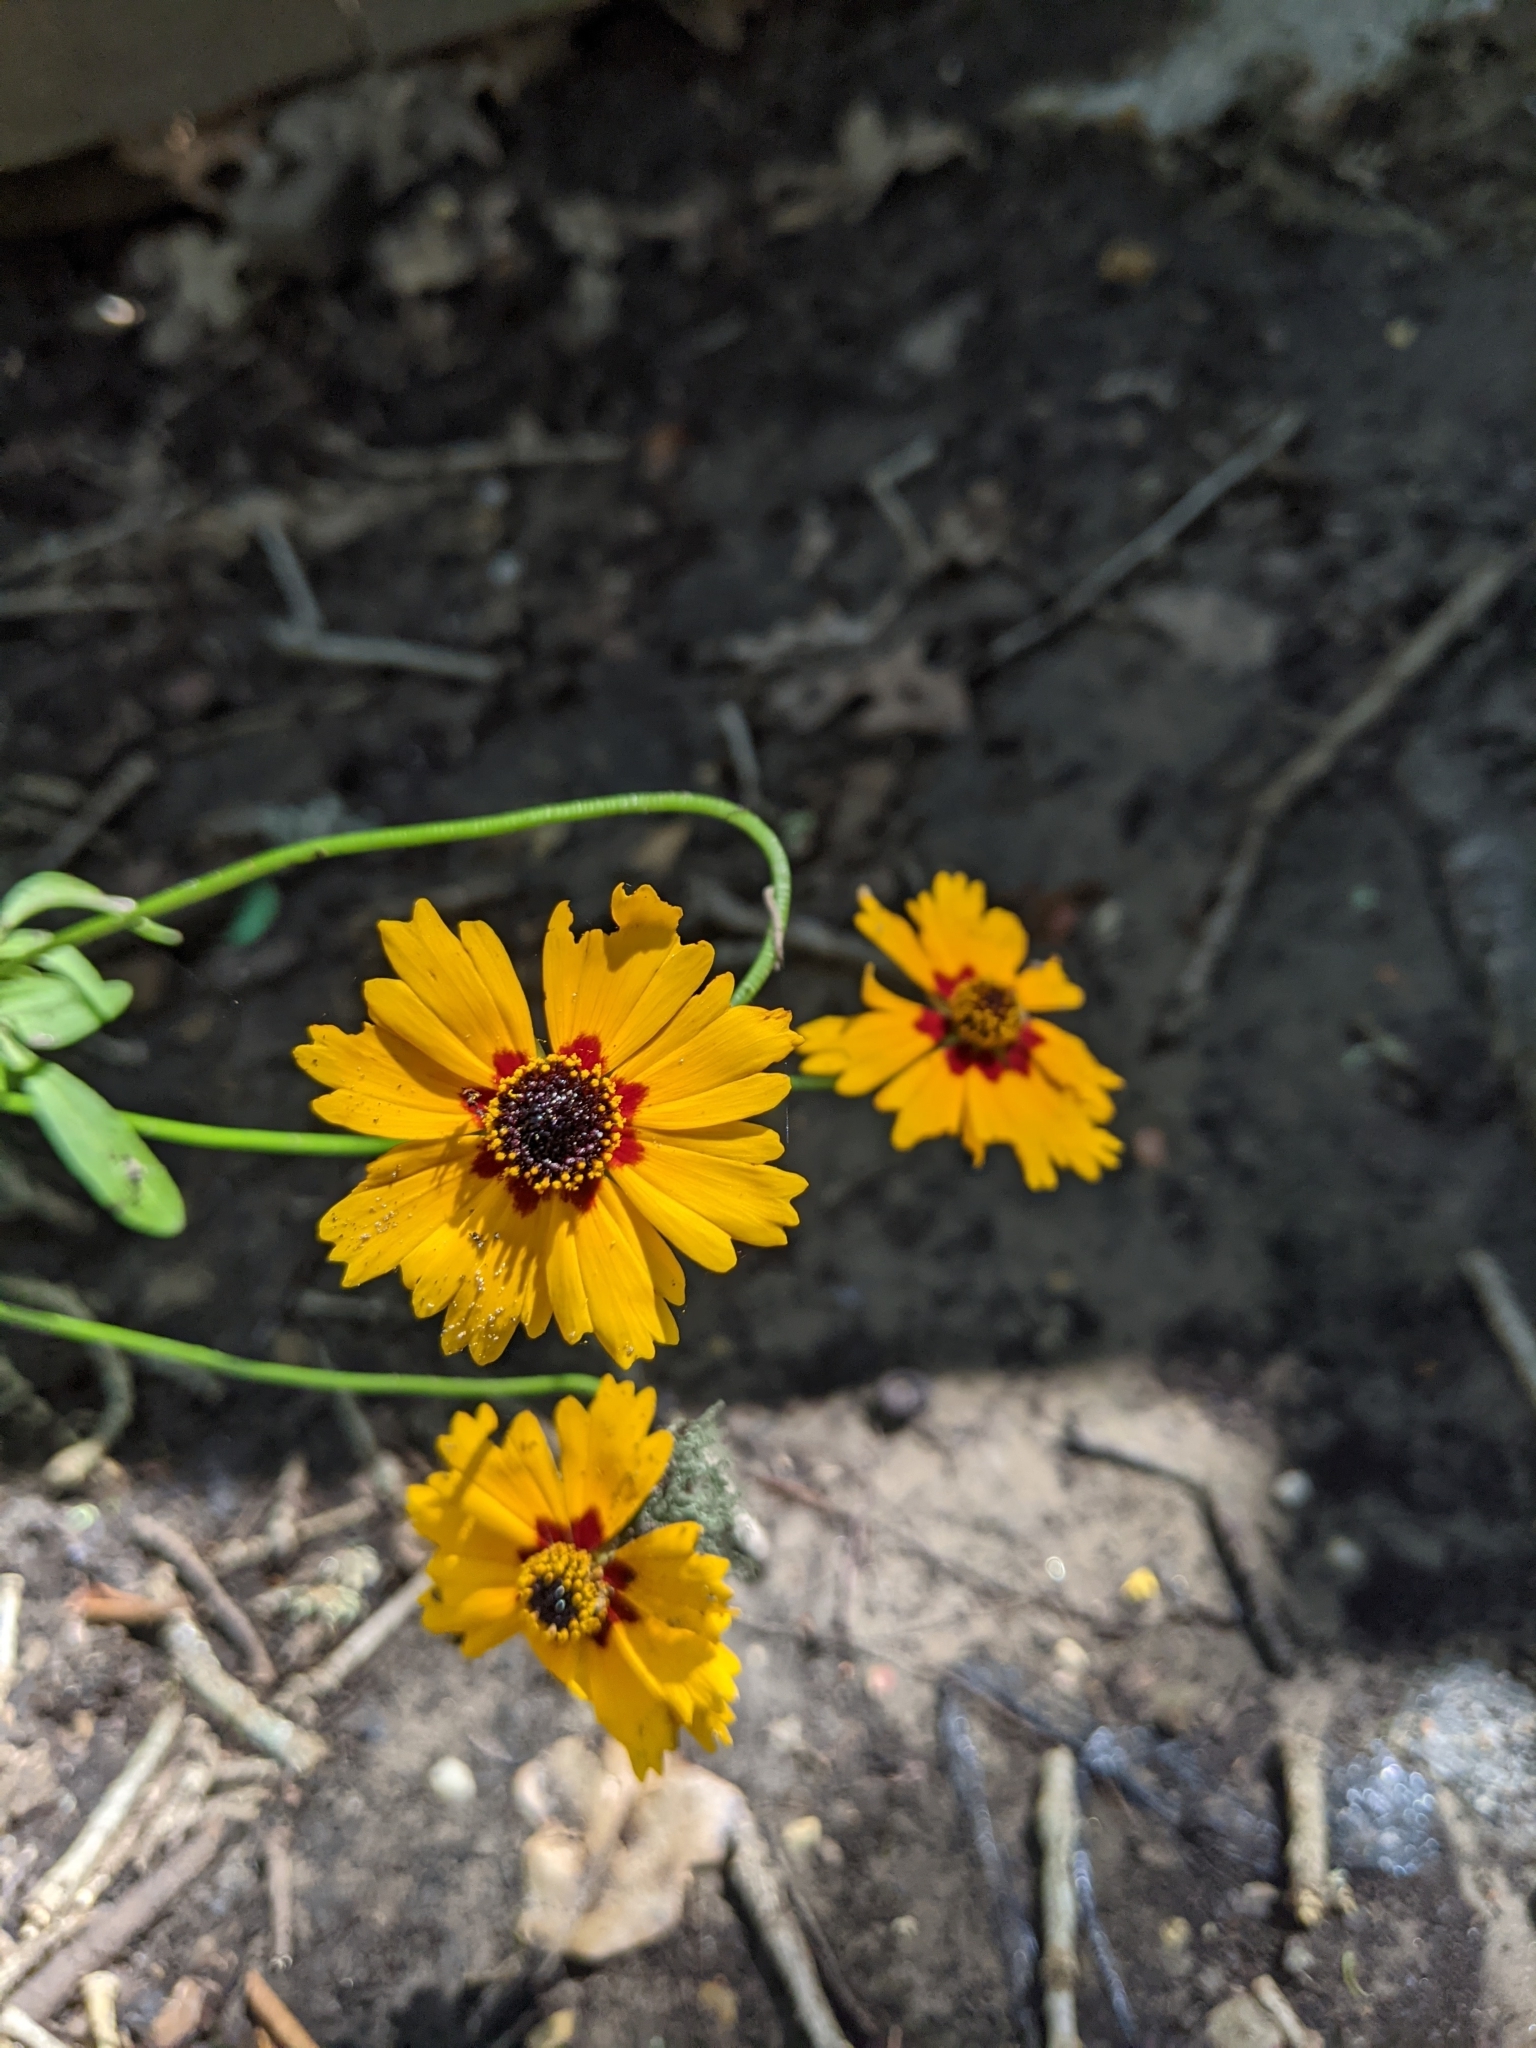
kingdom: Plantae
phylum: Tracheophyta
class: Magnoliopsida
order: Asterales
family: Asteraceae
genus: Coreopsis
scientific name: Coreopsis basalis
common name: Golden-mane coreopsis
